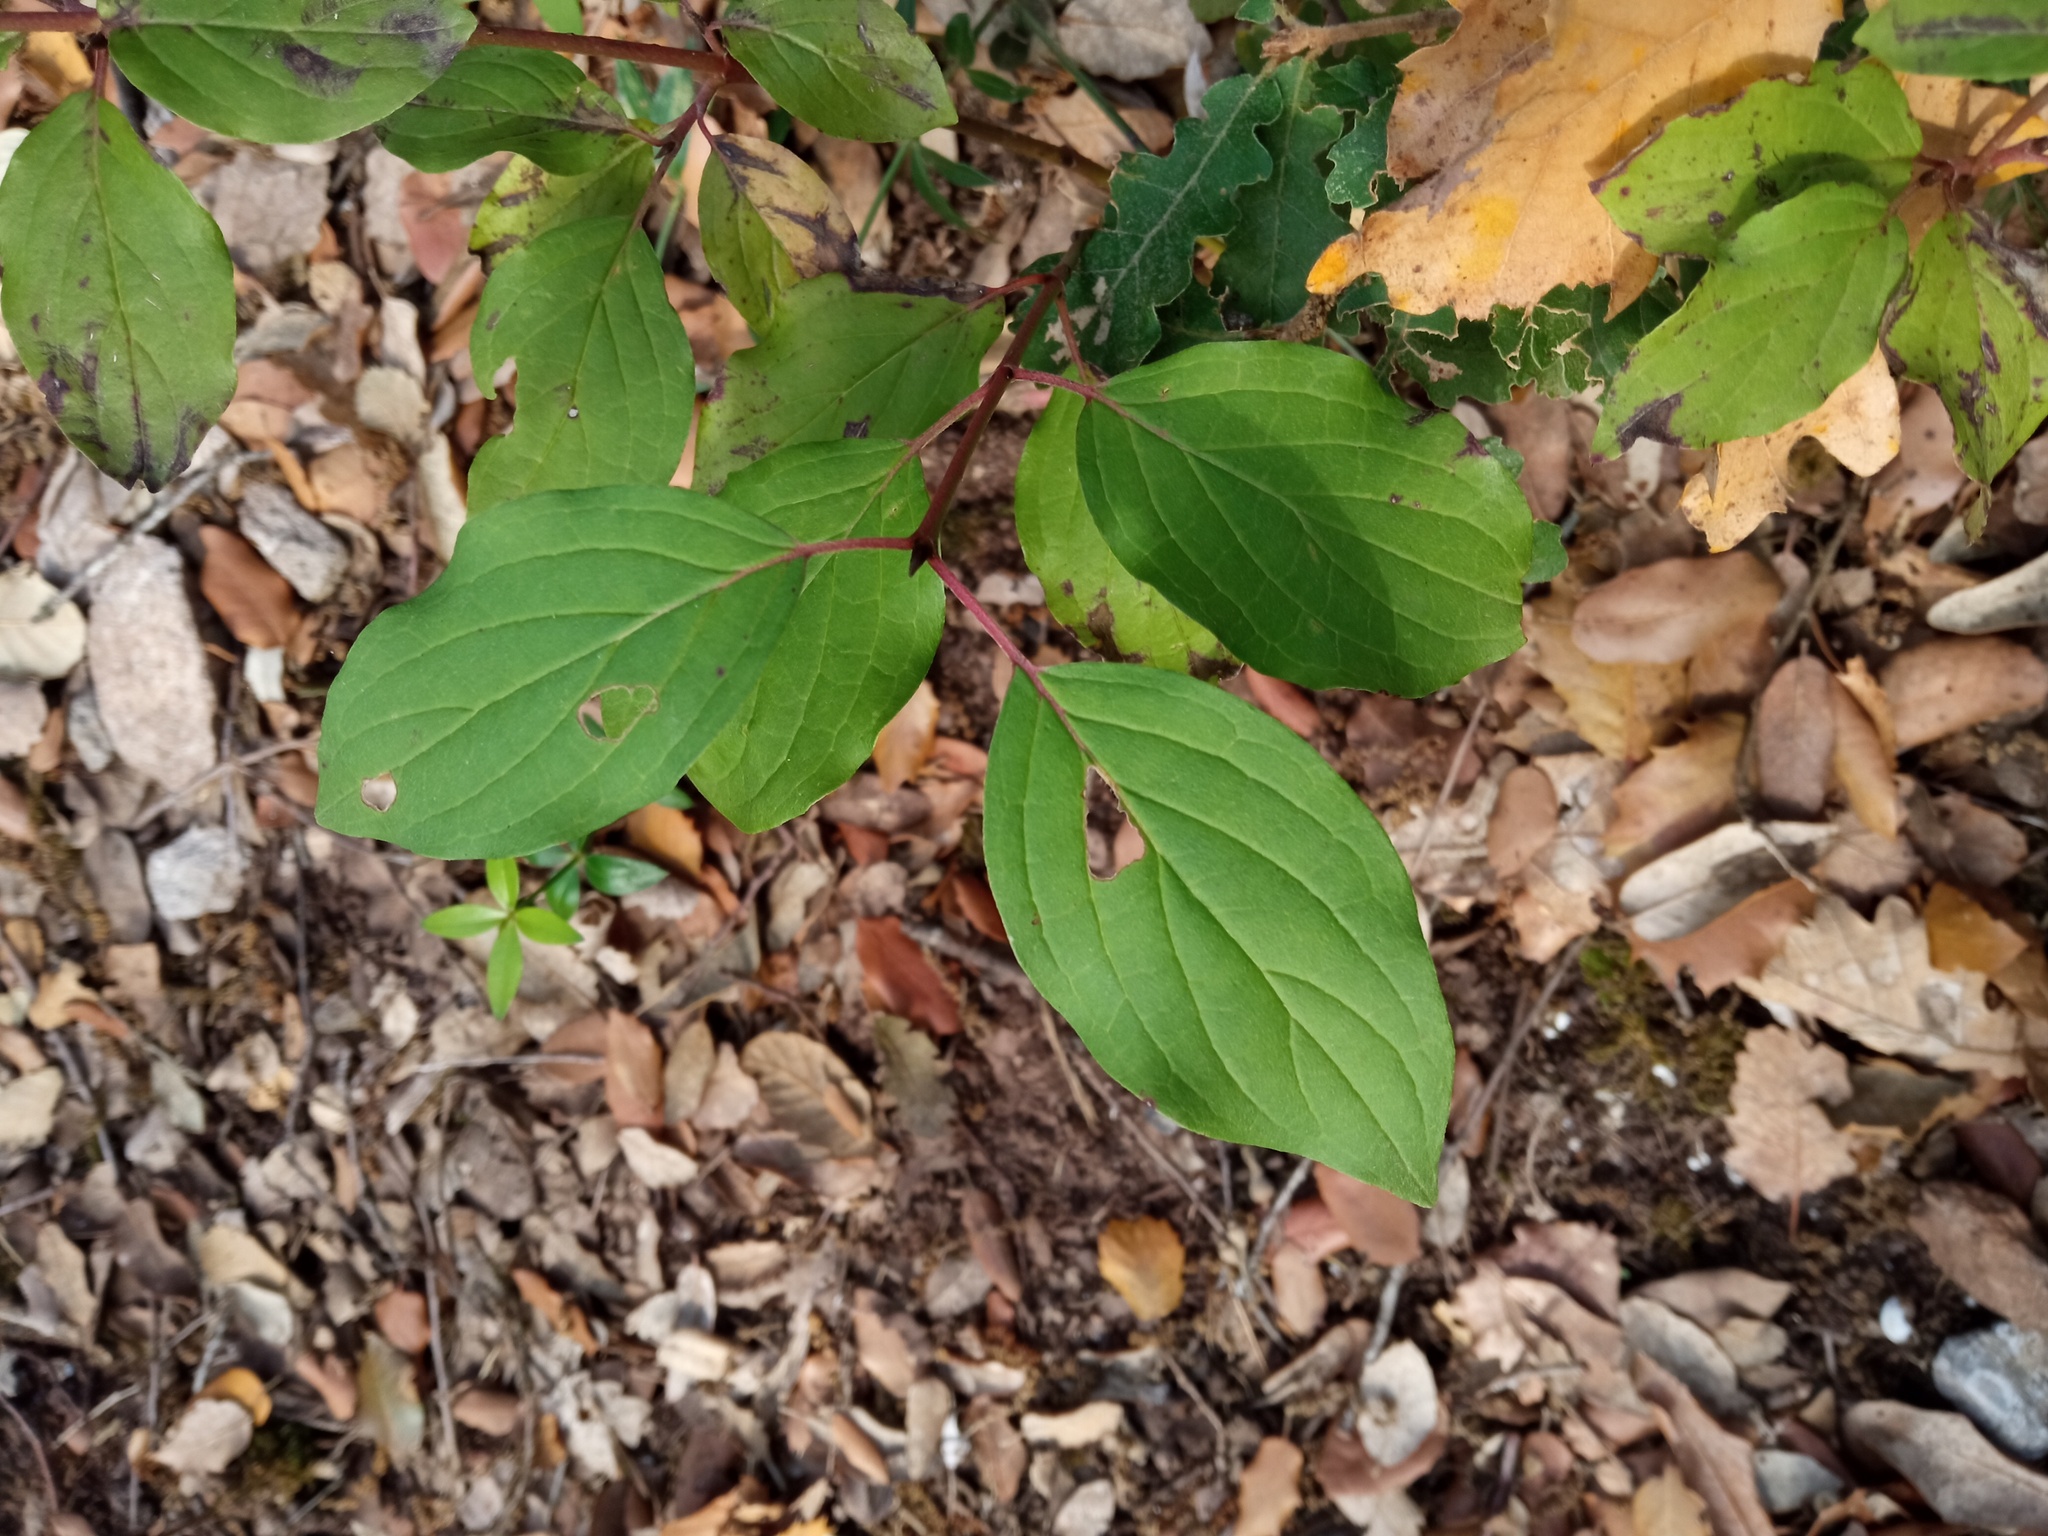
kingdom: Plantae
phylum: Tracheophyta
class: Magnoliopsida
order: Cornales
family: Cornaceae
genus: Cornus
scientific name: Cornus sanguinea
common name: Dogwood
